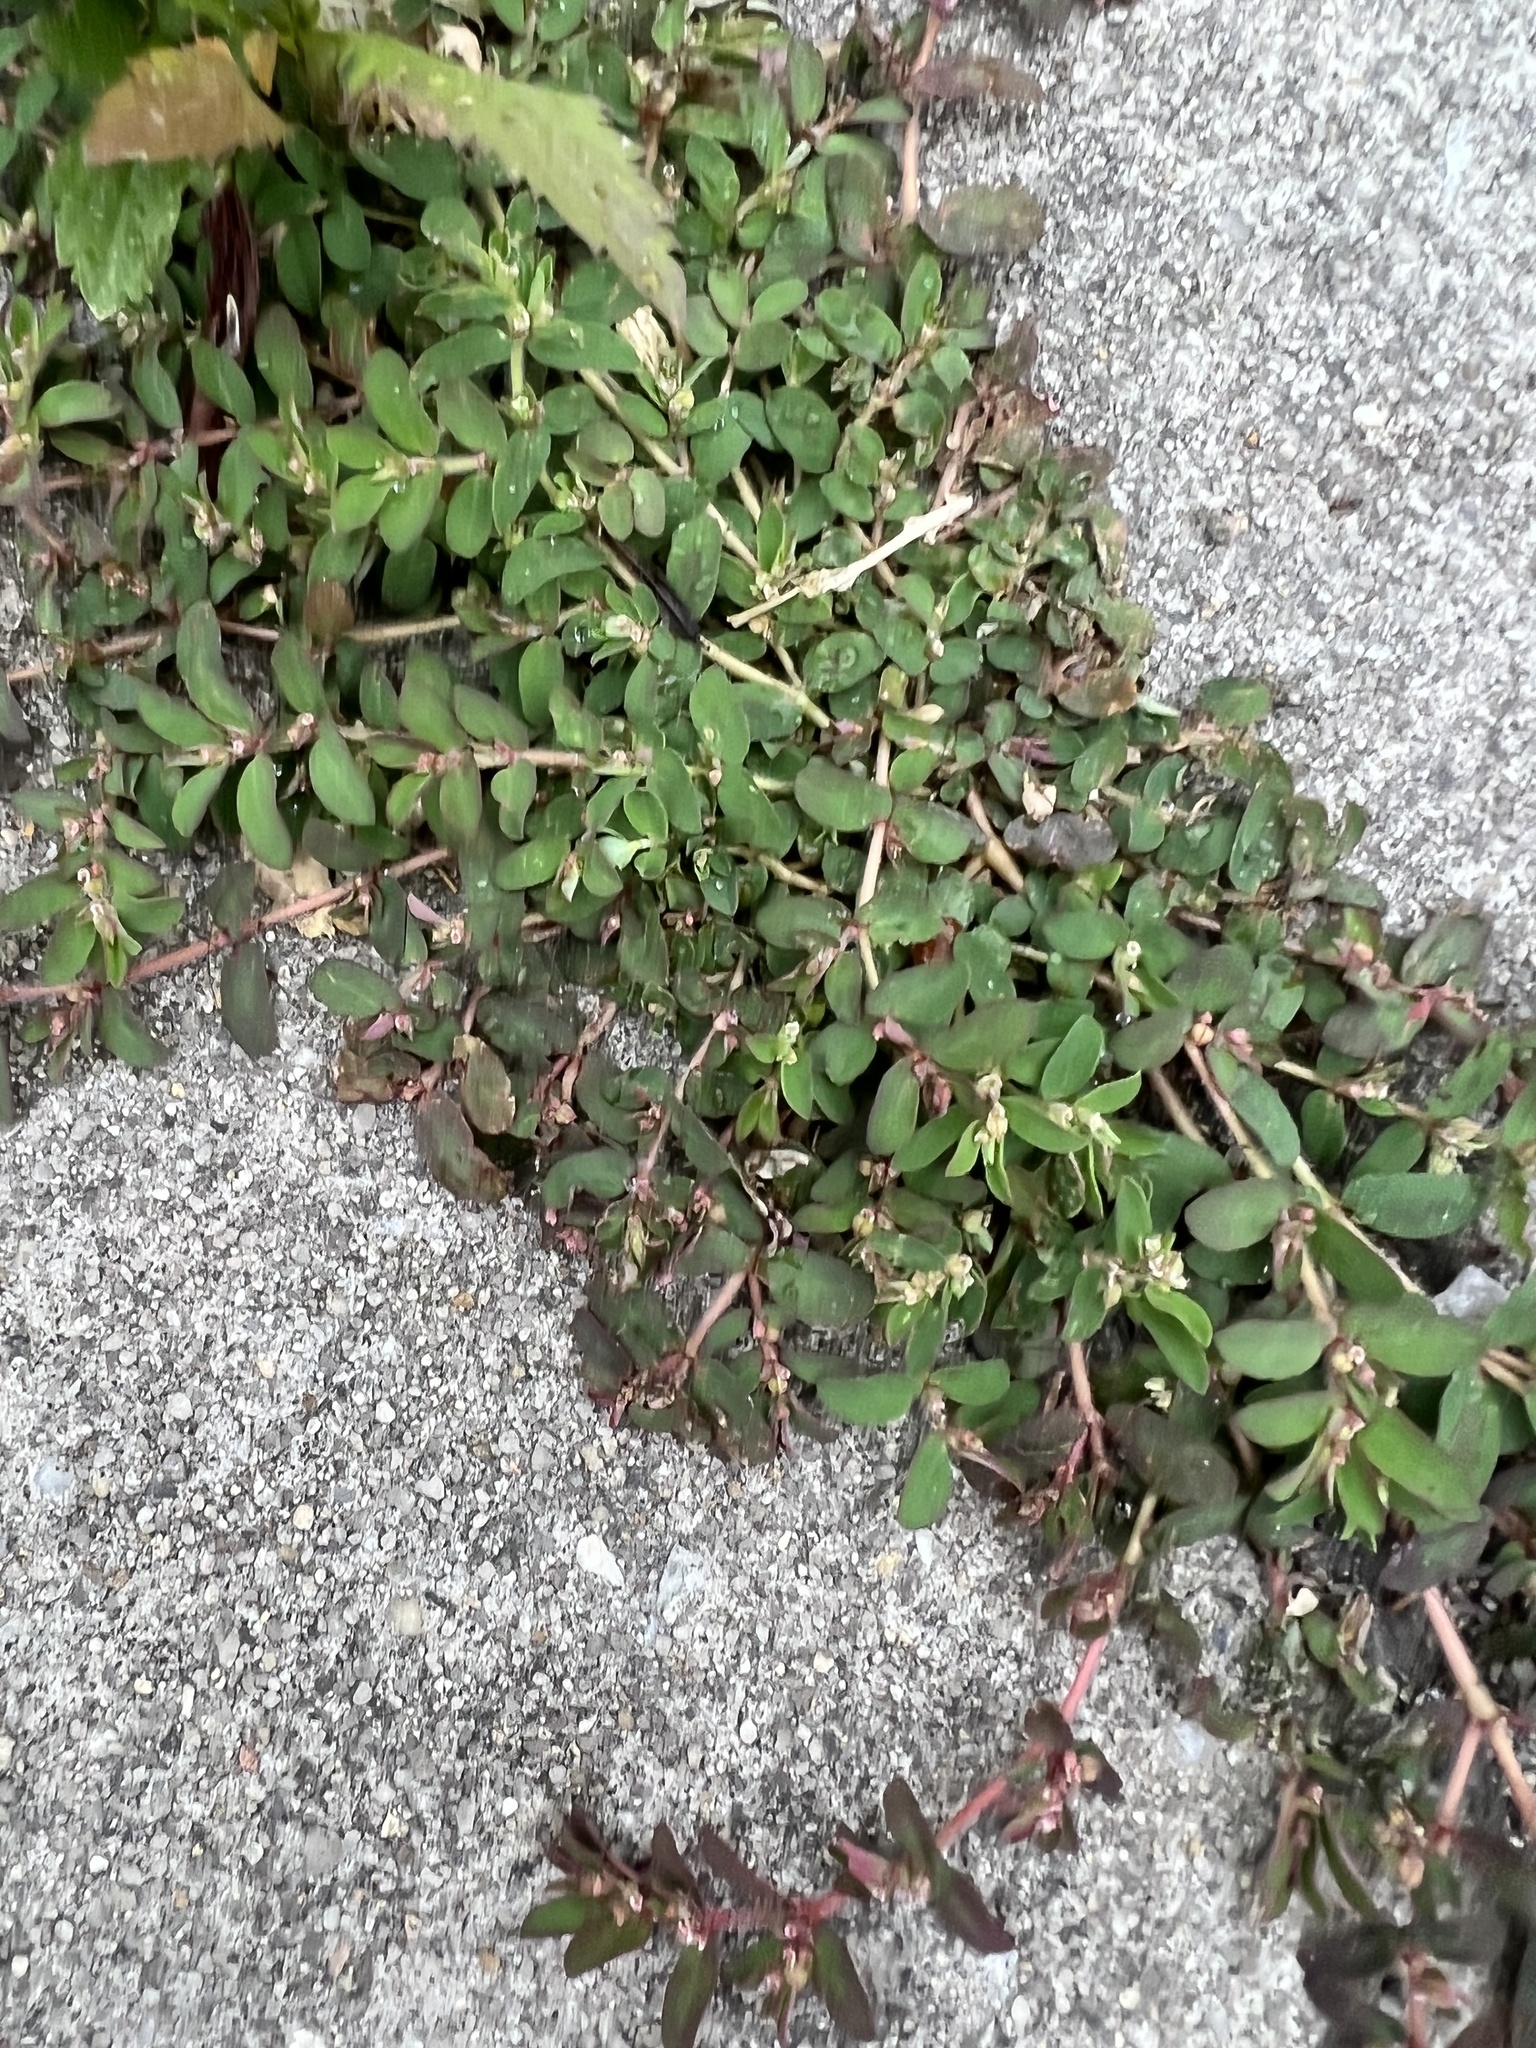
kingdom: Plantae
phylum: Tracheophyta
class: Magnoliopsida
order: Malpighiales
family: Euphorbiaceae
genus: Euphorbia
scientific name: Euphorbia maculata
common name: Spotted spurge
